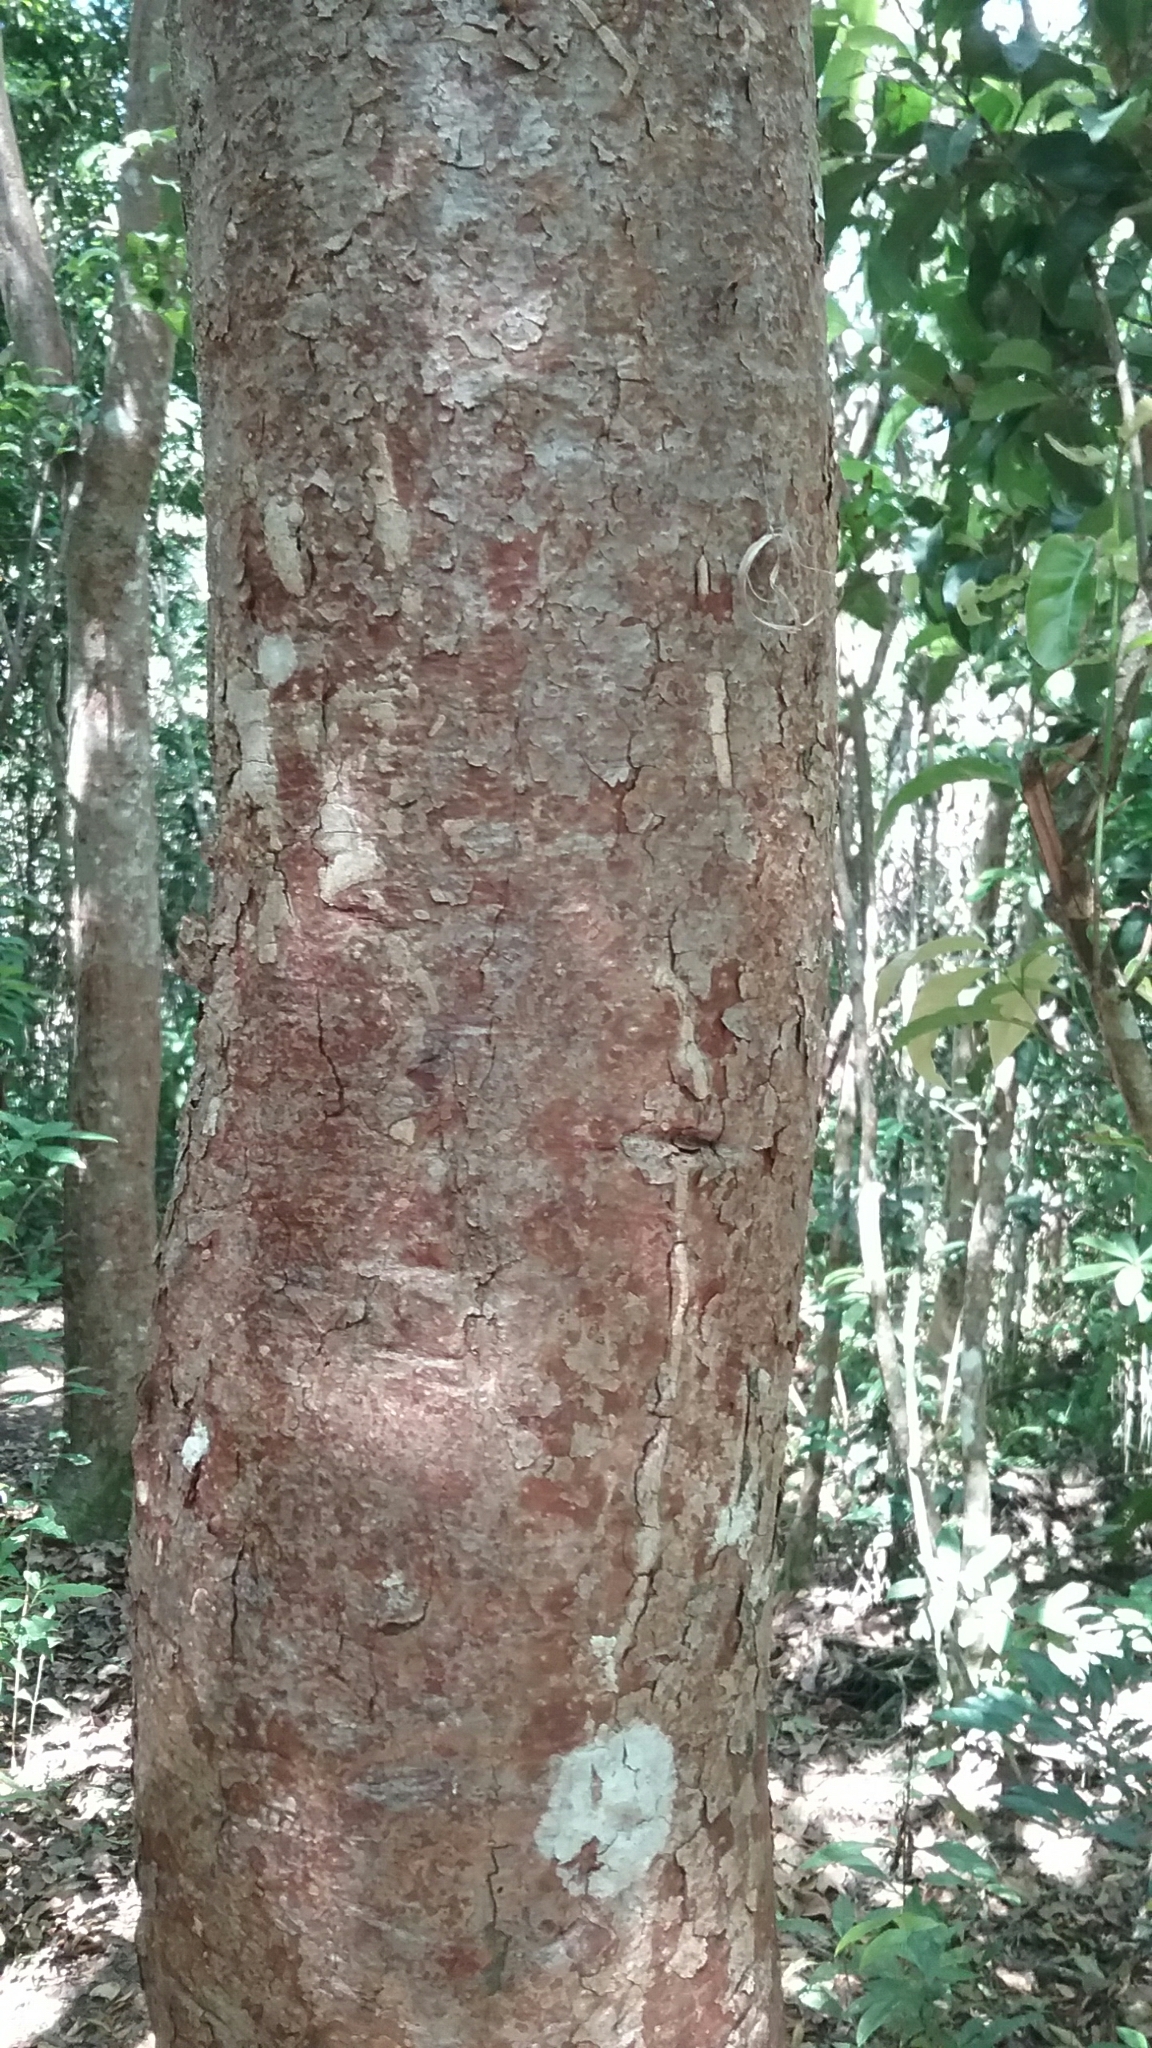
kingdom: Plantae
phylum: Tracheophyta
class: Magnoliopsida
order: Sapindales
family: Burseraceae
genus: Bursera
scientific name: Bursera simaruba
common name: Turpentine tree
